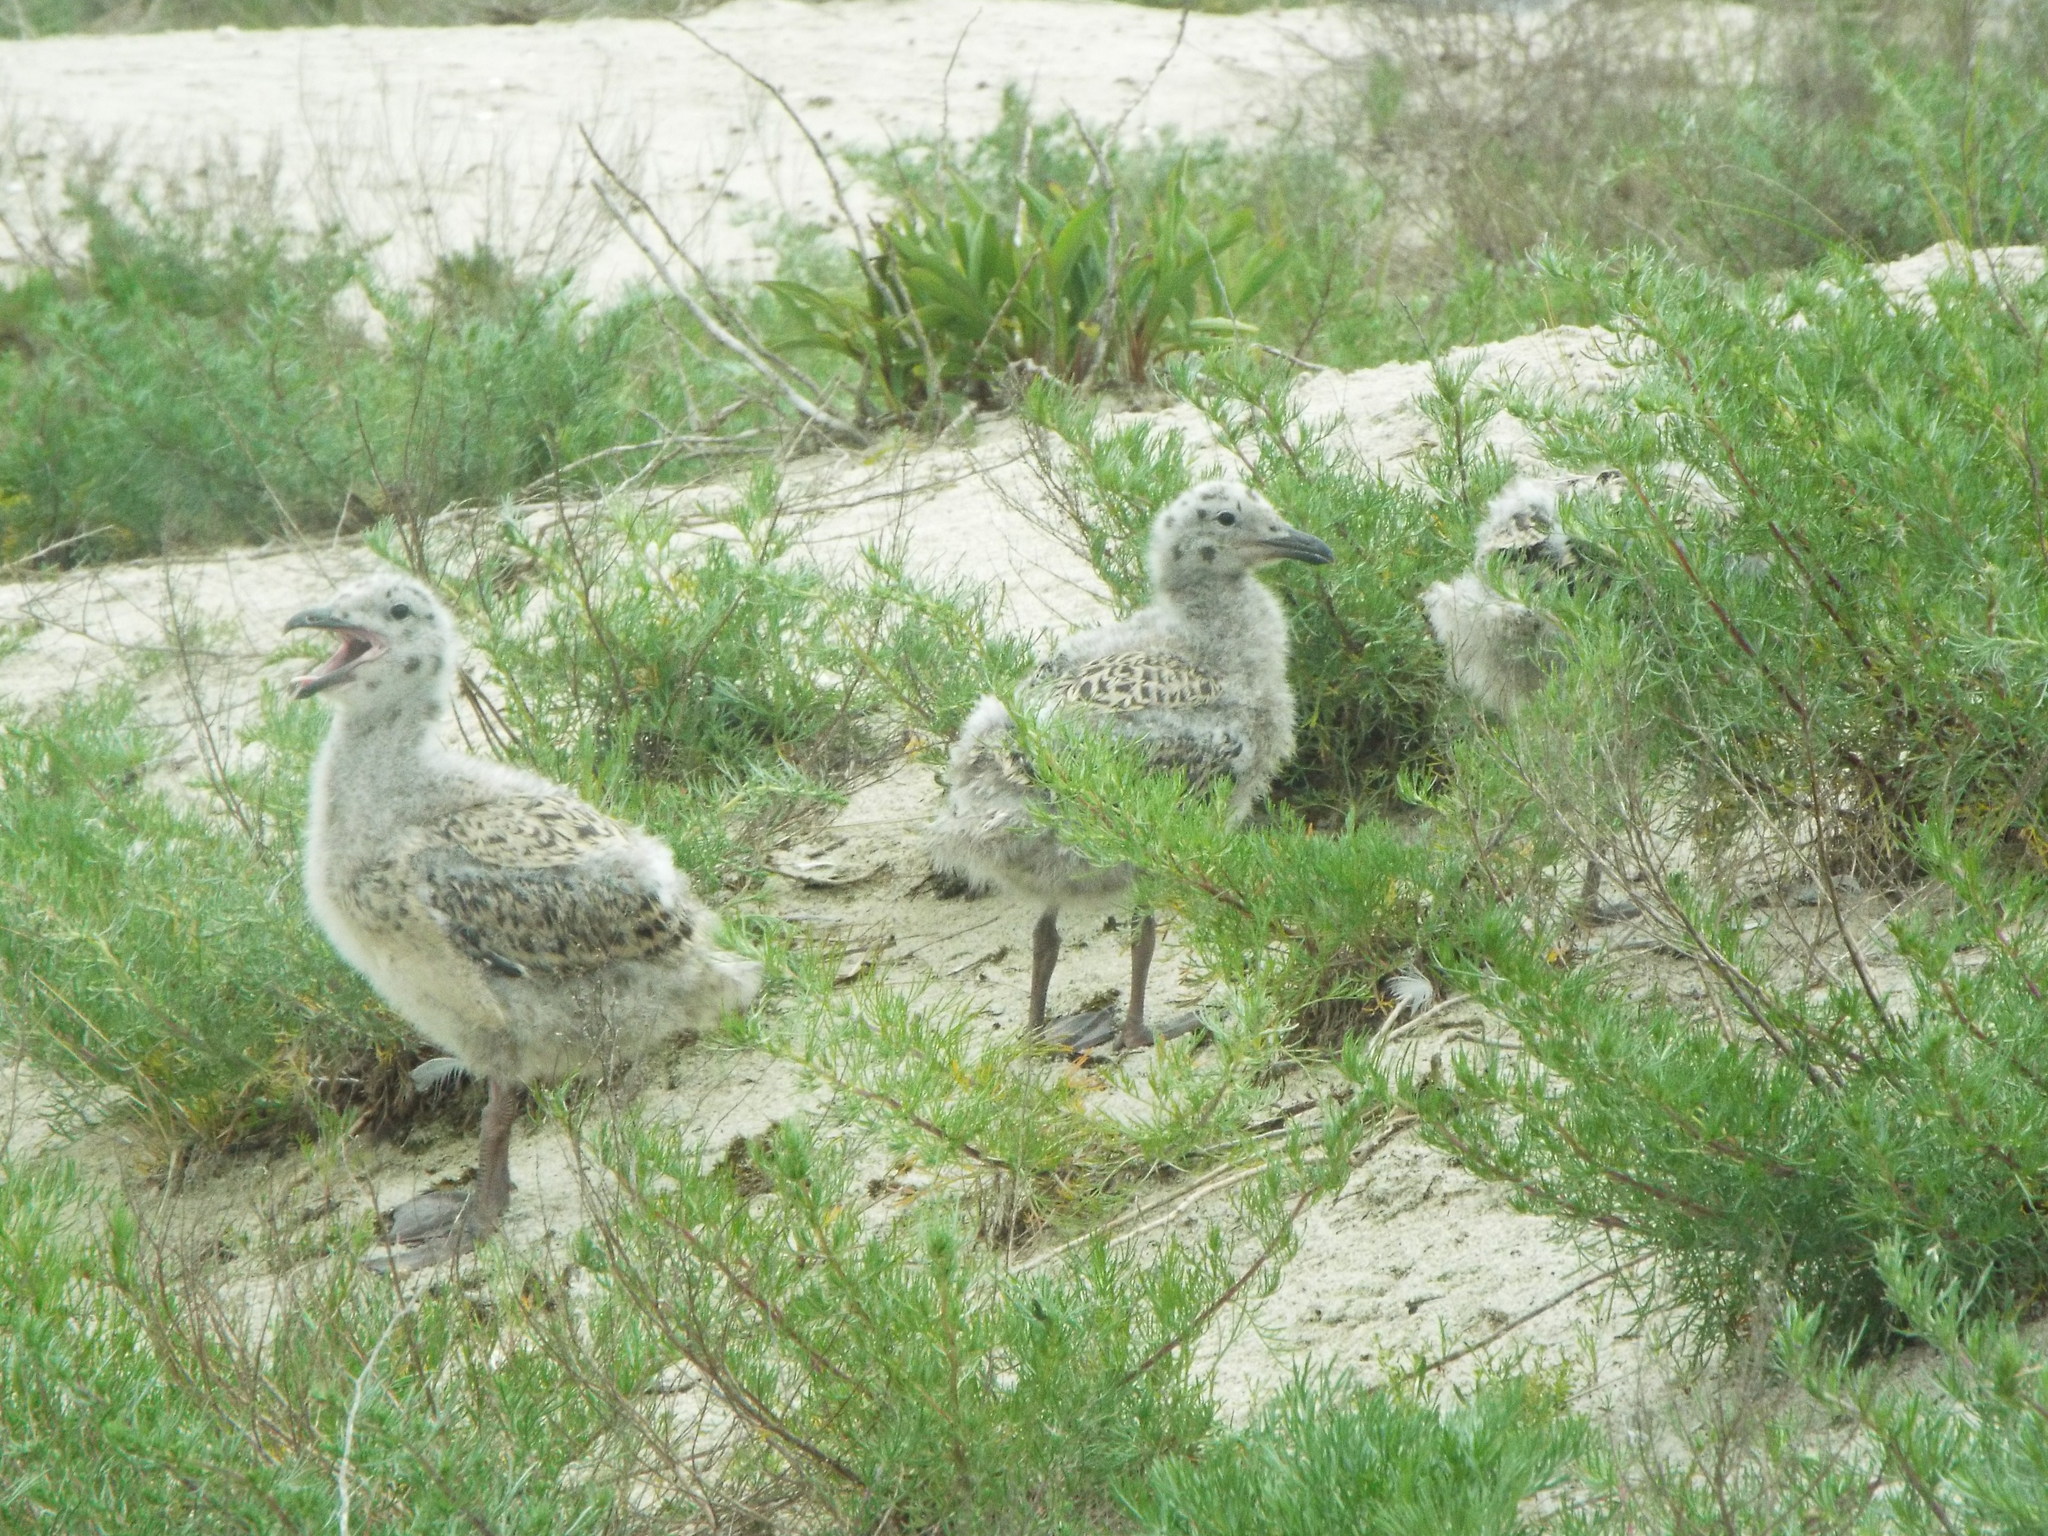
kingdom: Animalia
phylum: Chordata
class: Aves
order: Charadriiformes
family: Laridae
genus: Larus
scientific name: Larus marinus
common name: Great black-backed gull
